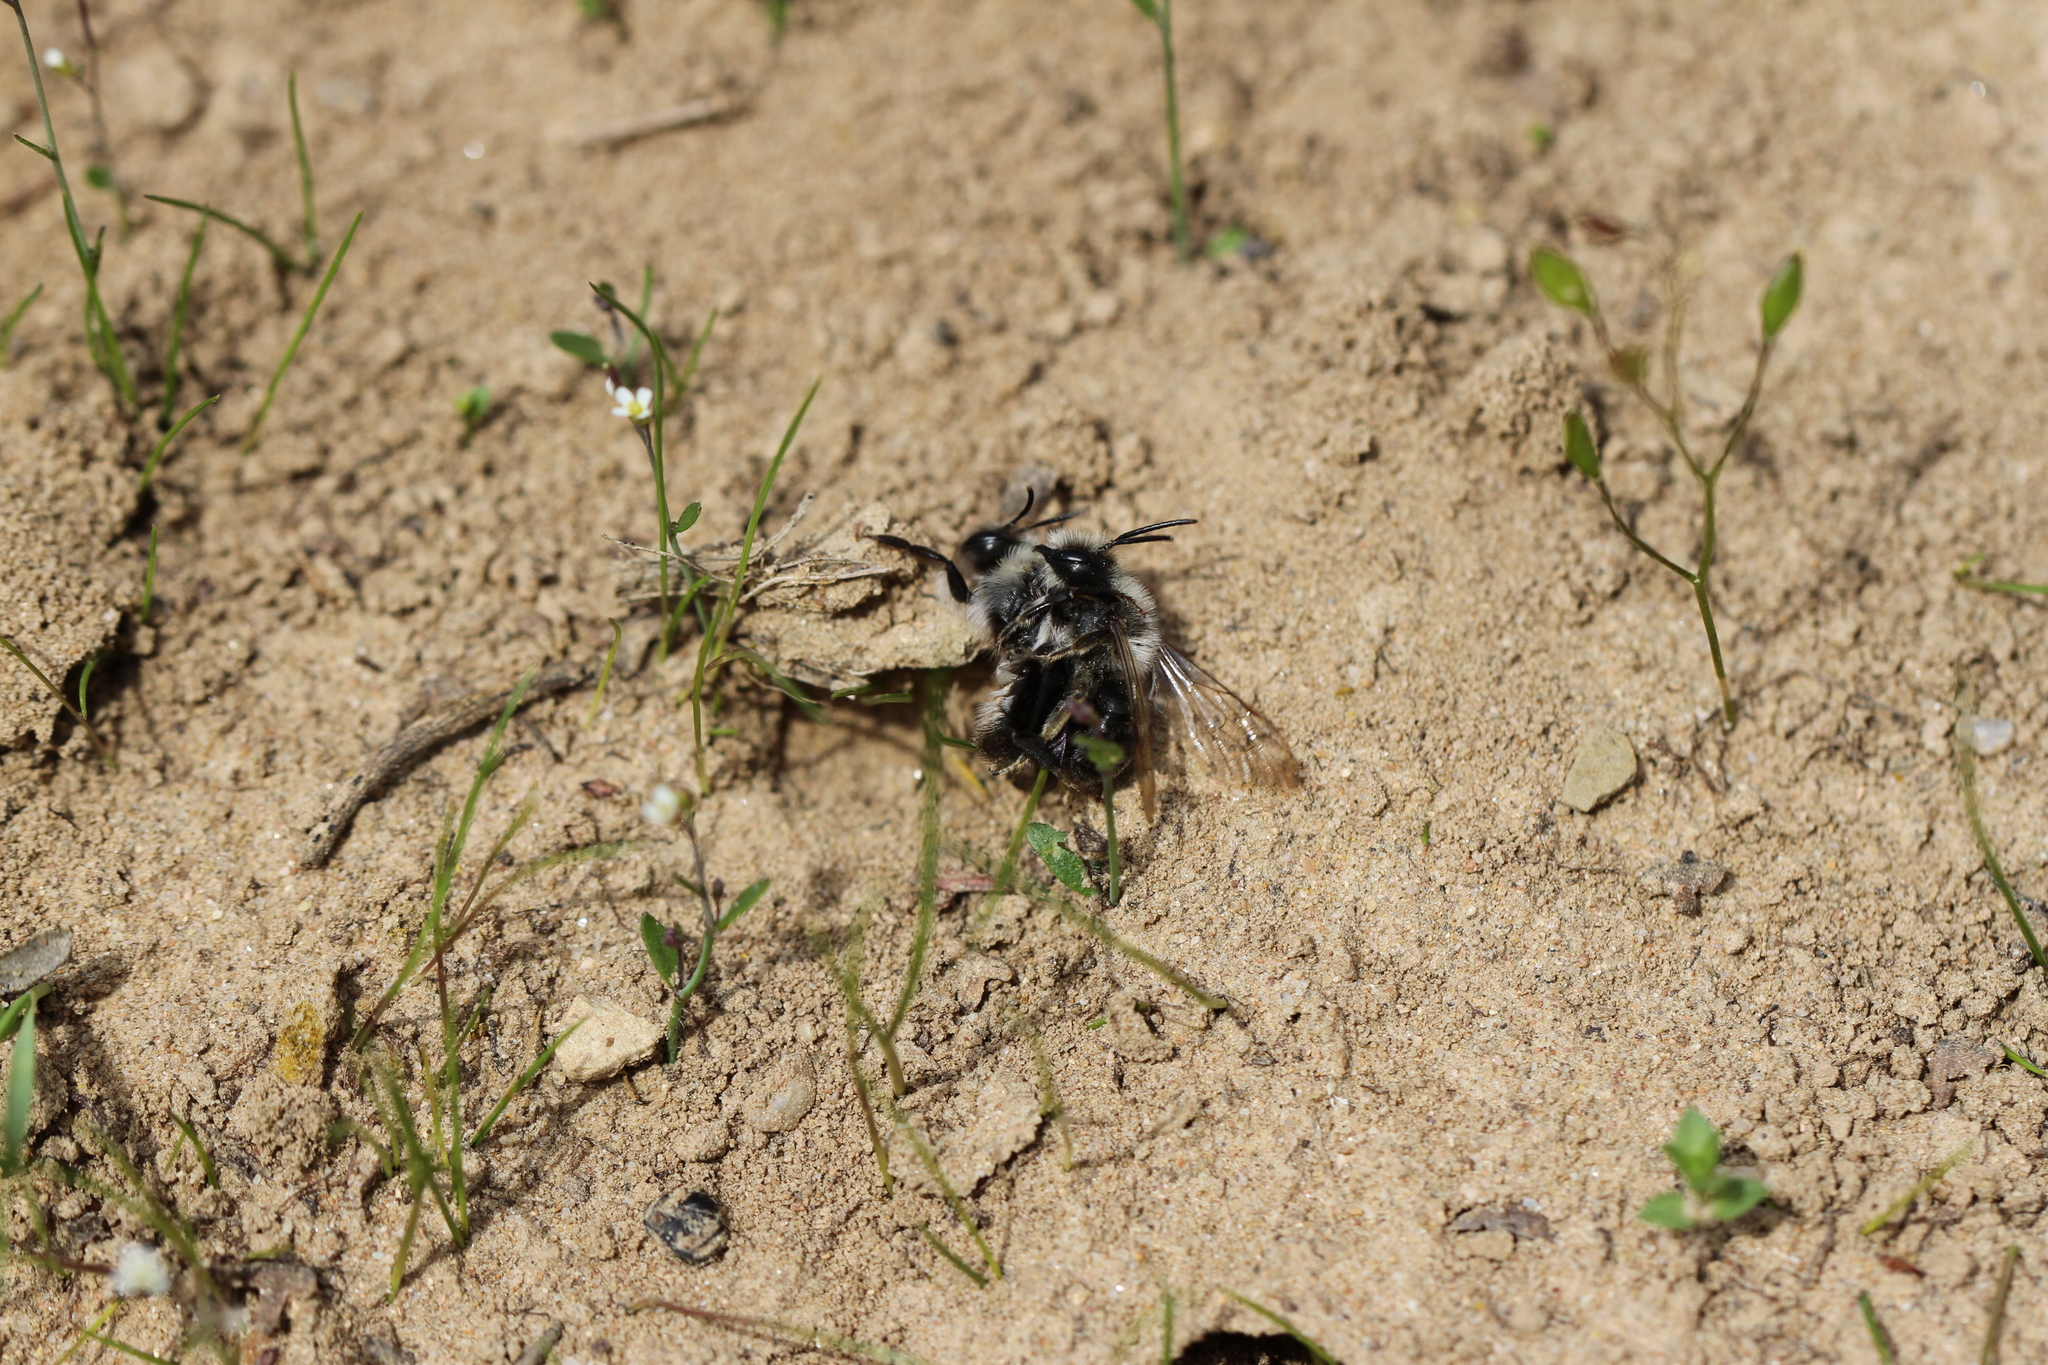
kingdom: Animalia
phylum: Arthropoda
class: Insecta
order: Hymenoptera
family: Andrenidae
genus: Andrena
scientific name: Andrena vaga
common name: Grey-backed mining bee
